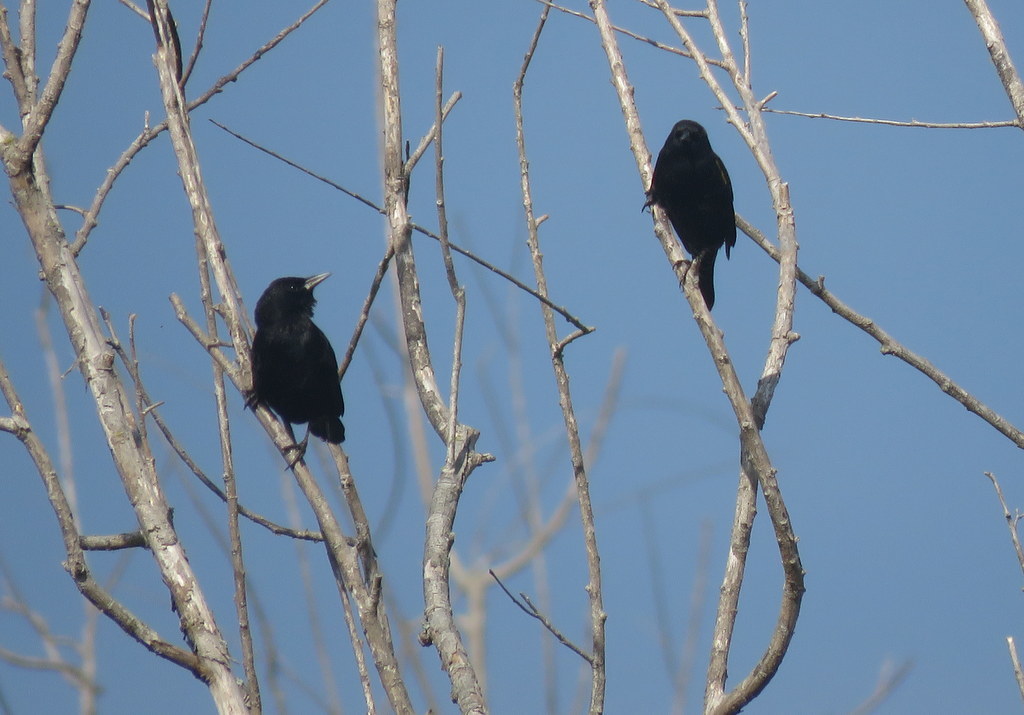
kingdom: Animalia
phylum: Chordata
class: Aves
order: Passeriformes
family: Icteridae
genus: Agelasticus
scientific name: Agelasticus thilius
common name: Yellow-winged blackbird
